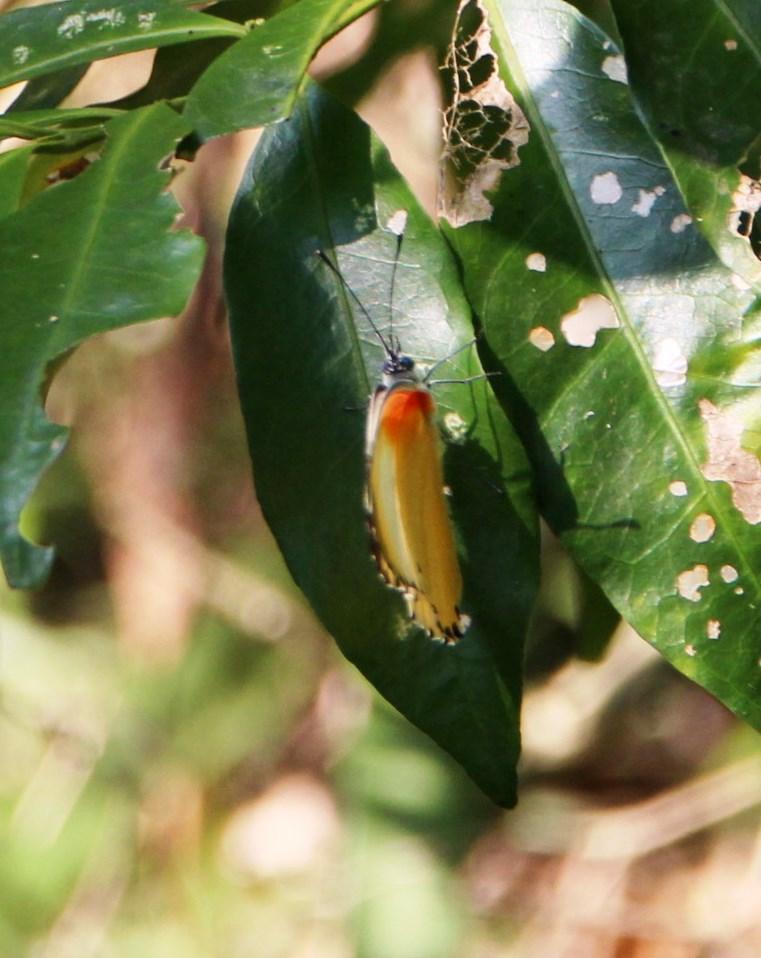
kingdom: Animalia
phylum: Arthropoda
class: Insecta
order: Lepidoptera
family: Pieridae
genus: Mylothris
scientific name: Mylothris agathina
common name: Eastern dotted border
